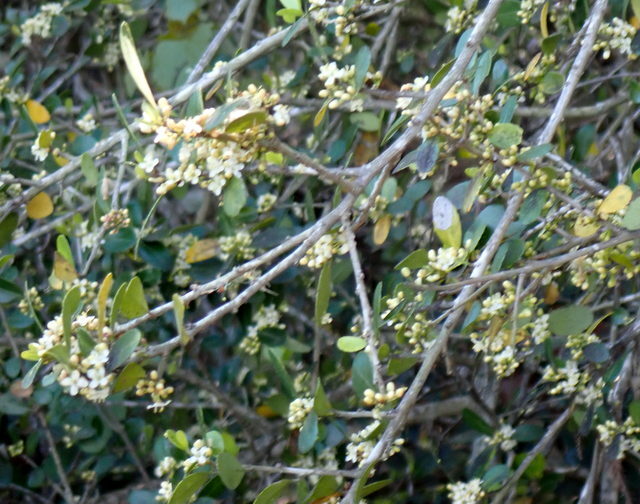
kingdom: Plantae
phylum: Tracheophyta
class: Magnoliopsida
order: Aquifoliales
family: Aquifoliaceae
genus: Ilex
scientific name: Ilex vomitoria
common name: Yaupon holly
